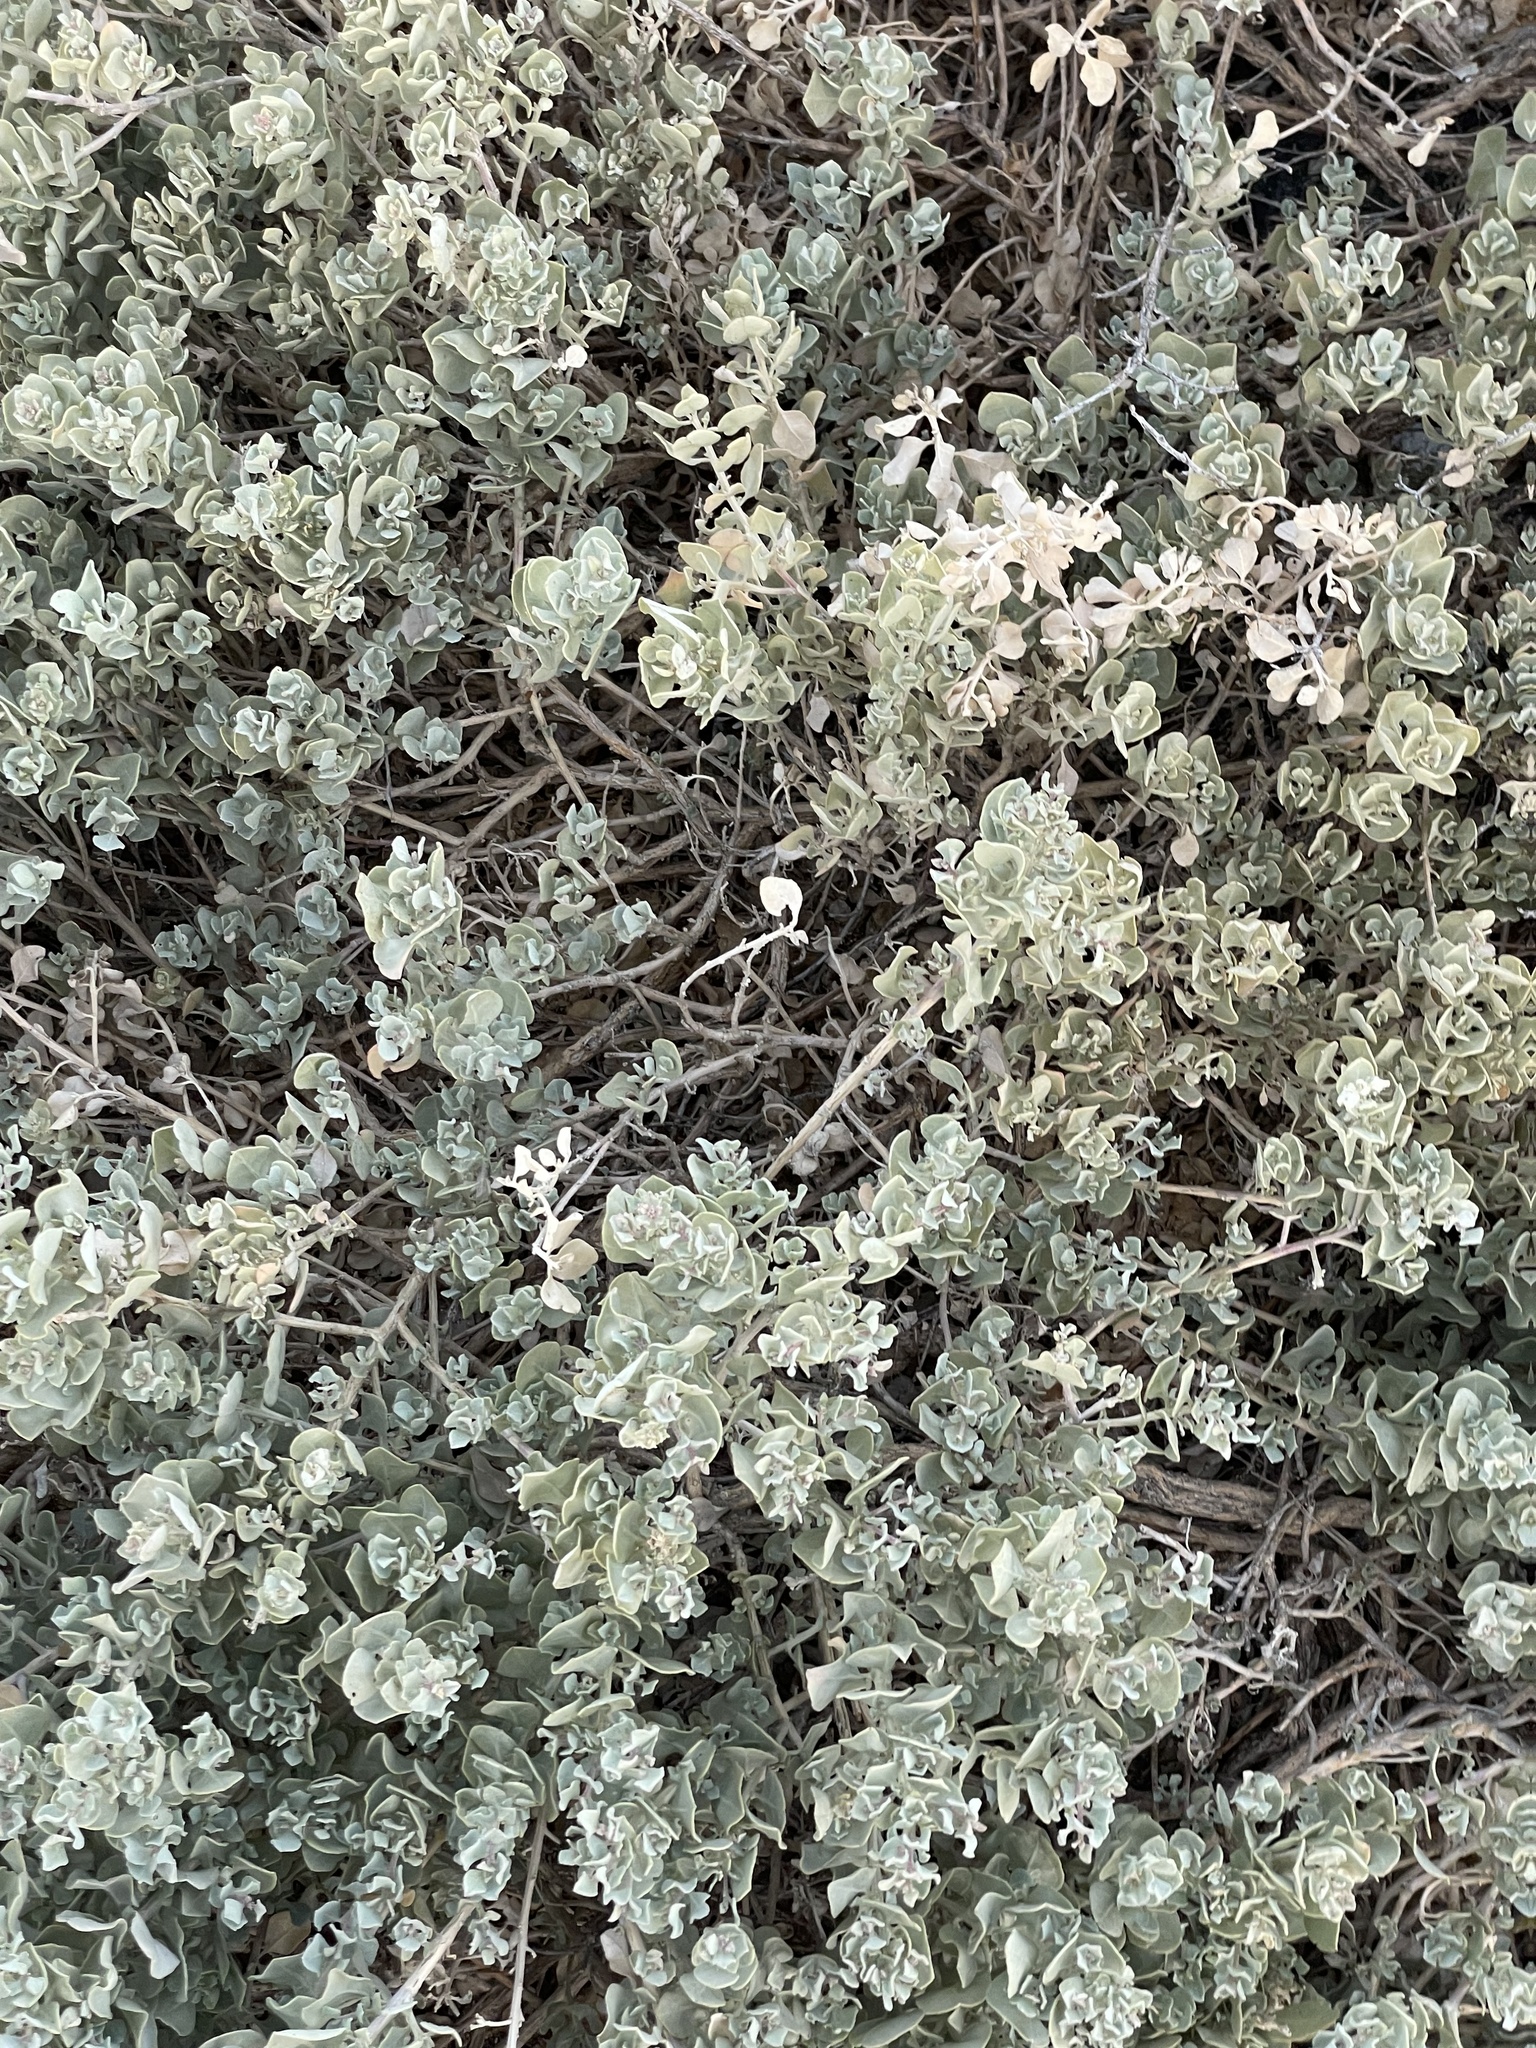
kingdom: Plantae
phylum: Tracheophyta
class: Magnoliopsida
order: Caryophyllales
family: Amaranthaceae
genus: Atriplex
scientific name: Atriplex barclayana
